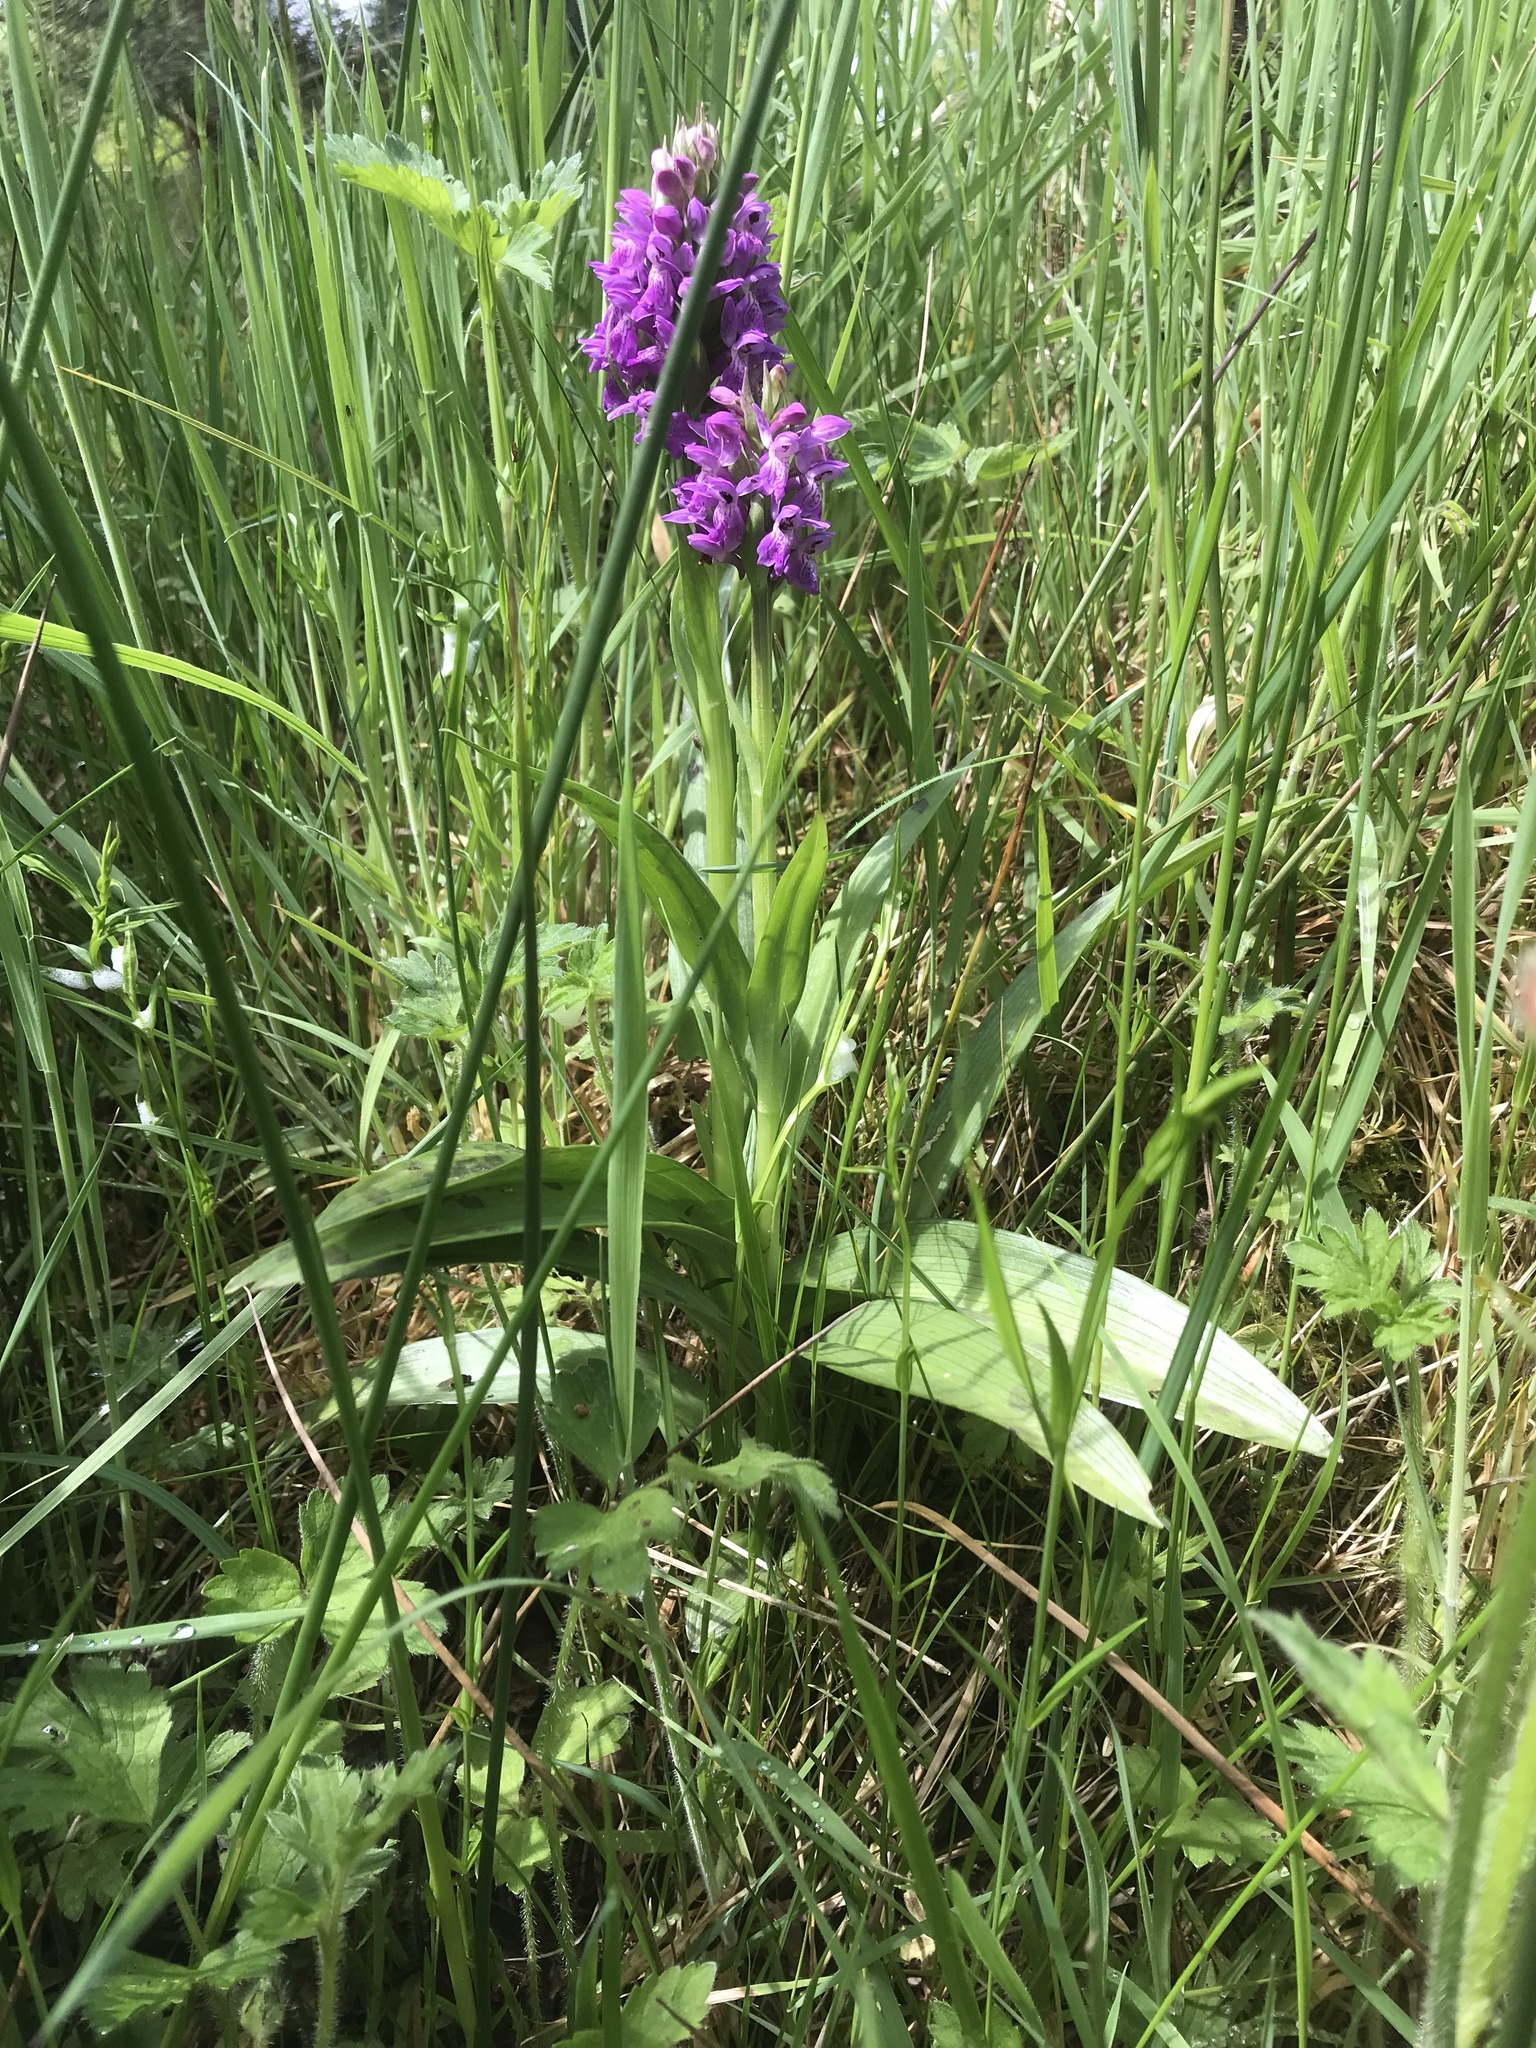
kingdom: Plantae
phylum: Tracheophyta
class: Liliopsida
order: Asparagales
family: Orchidaceae
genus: Dactylorhiza
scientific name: Dactylorhiza incarnata
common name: Early marsh-orchid
